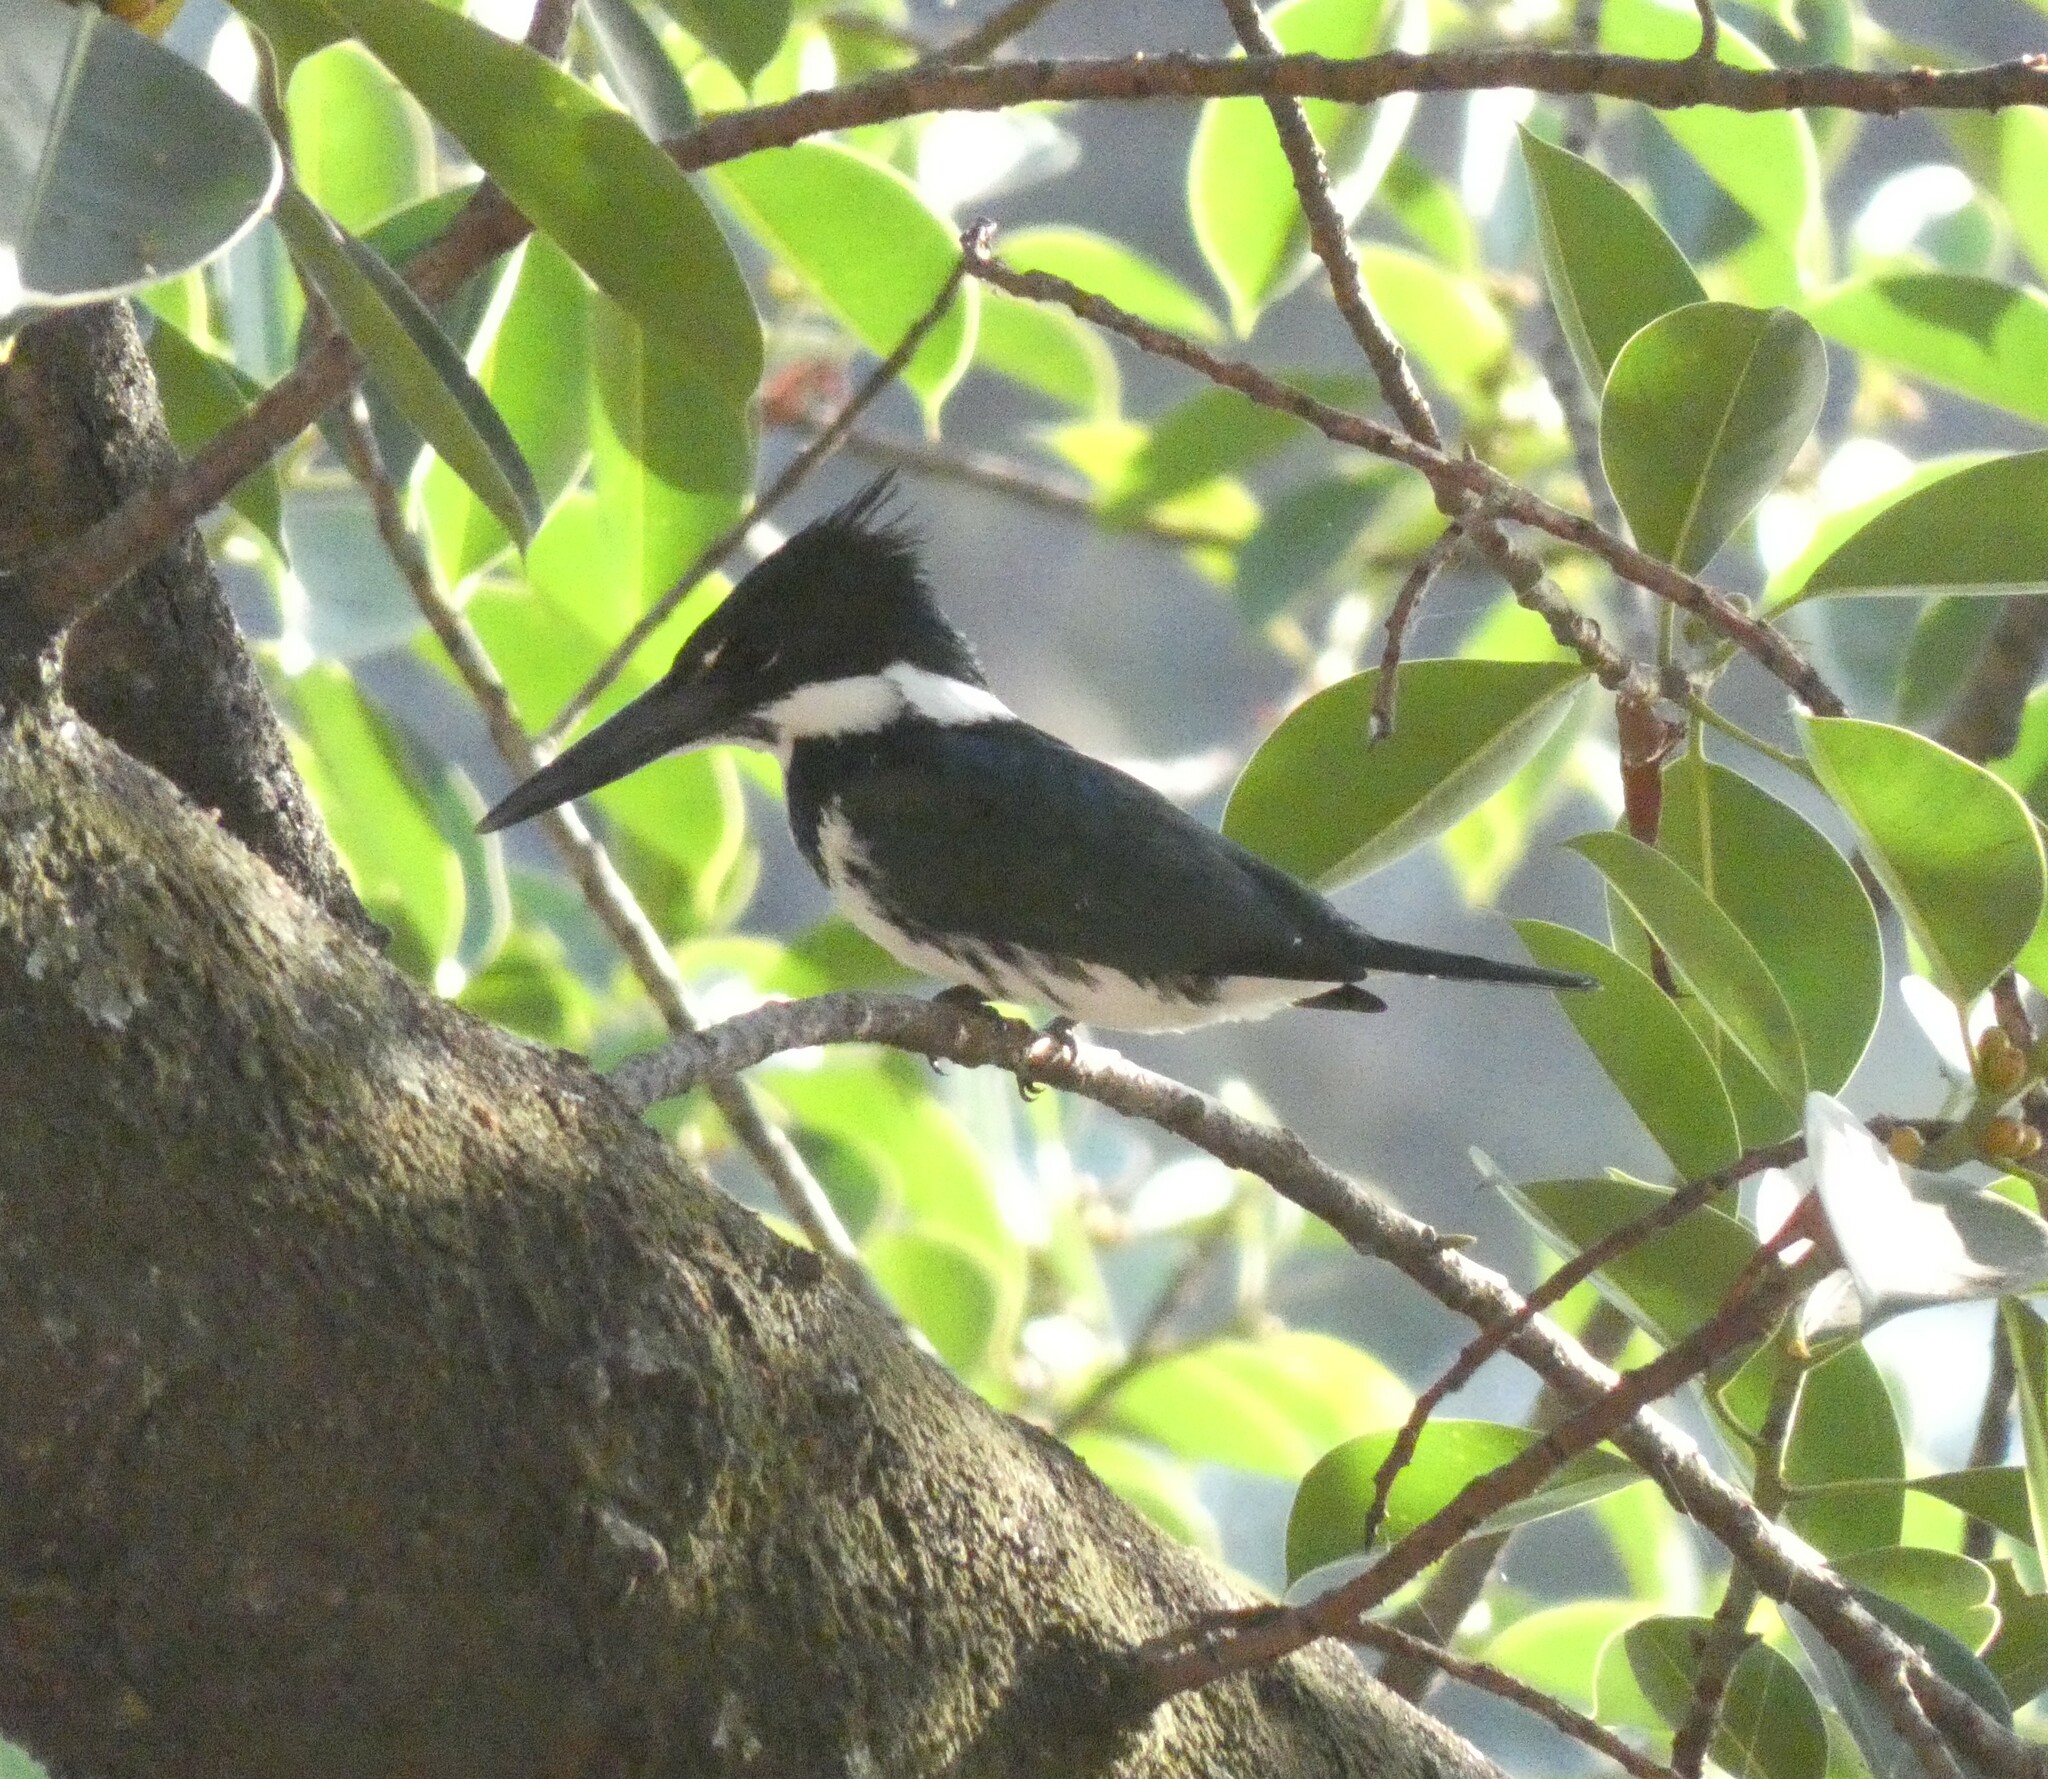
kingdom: Animalia
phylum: Chordata
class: Aves
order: Coraciiformes
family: Alcedinidae
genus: Chloroceryle
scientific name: Chloroceryle amazona
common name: Amazon kingfisher
